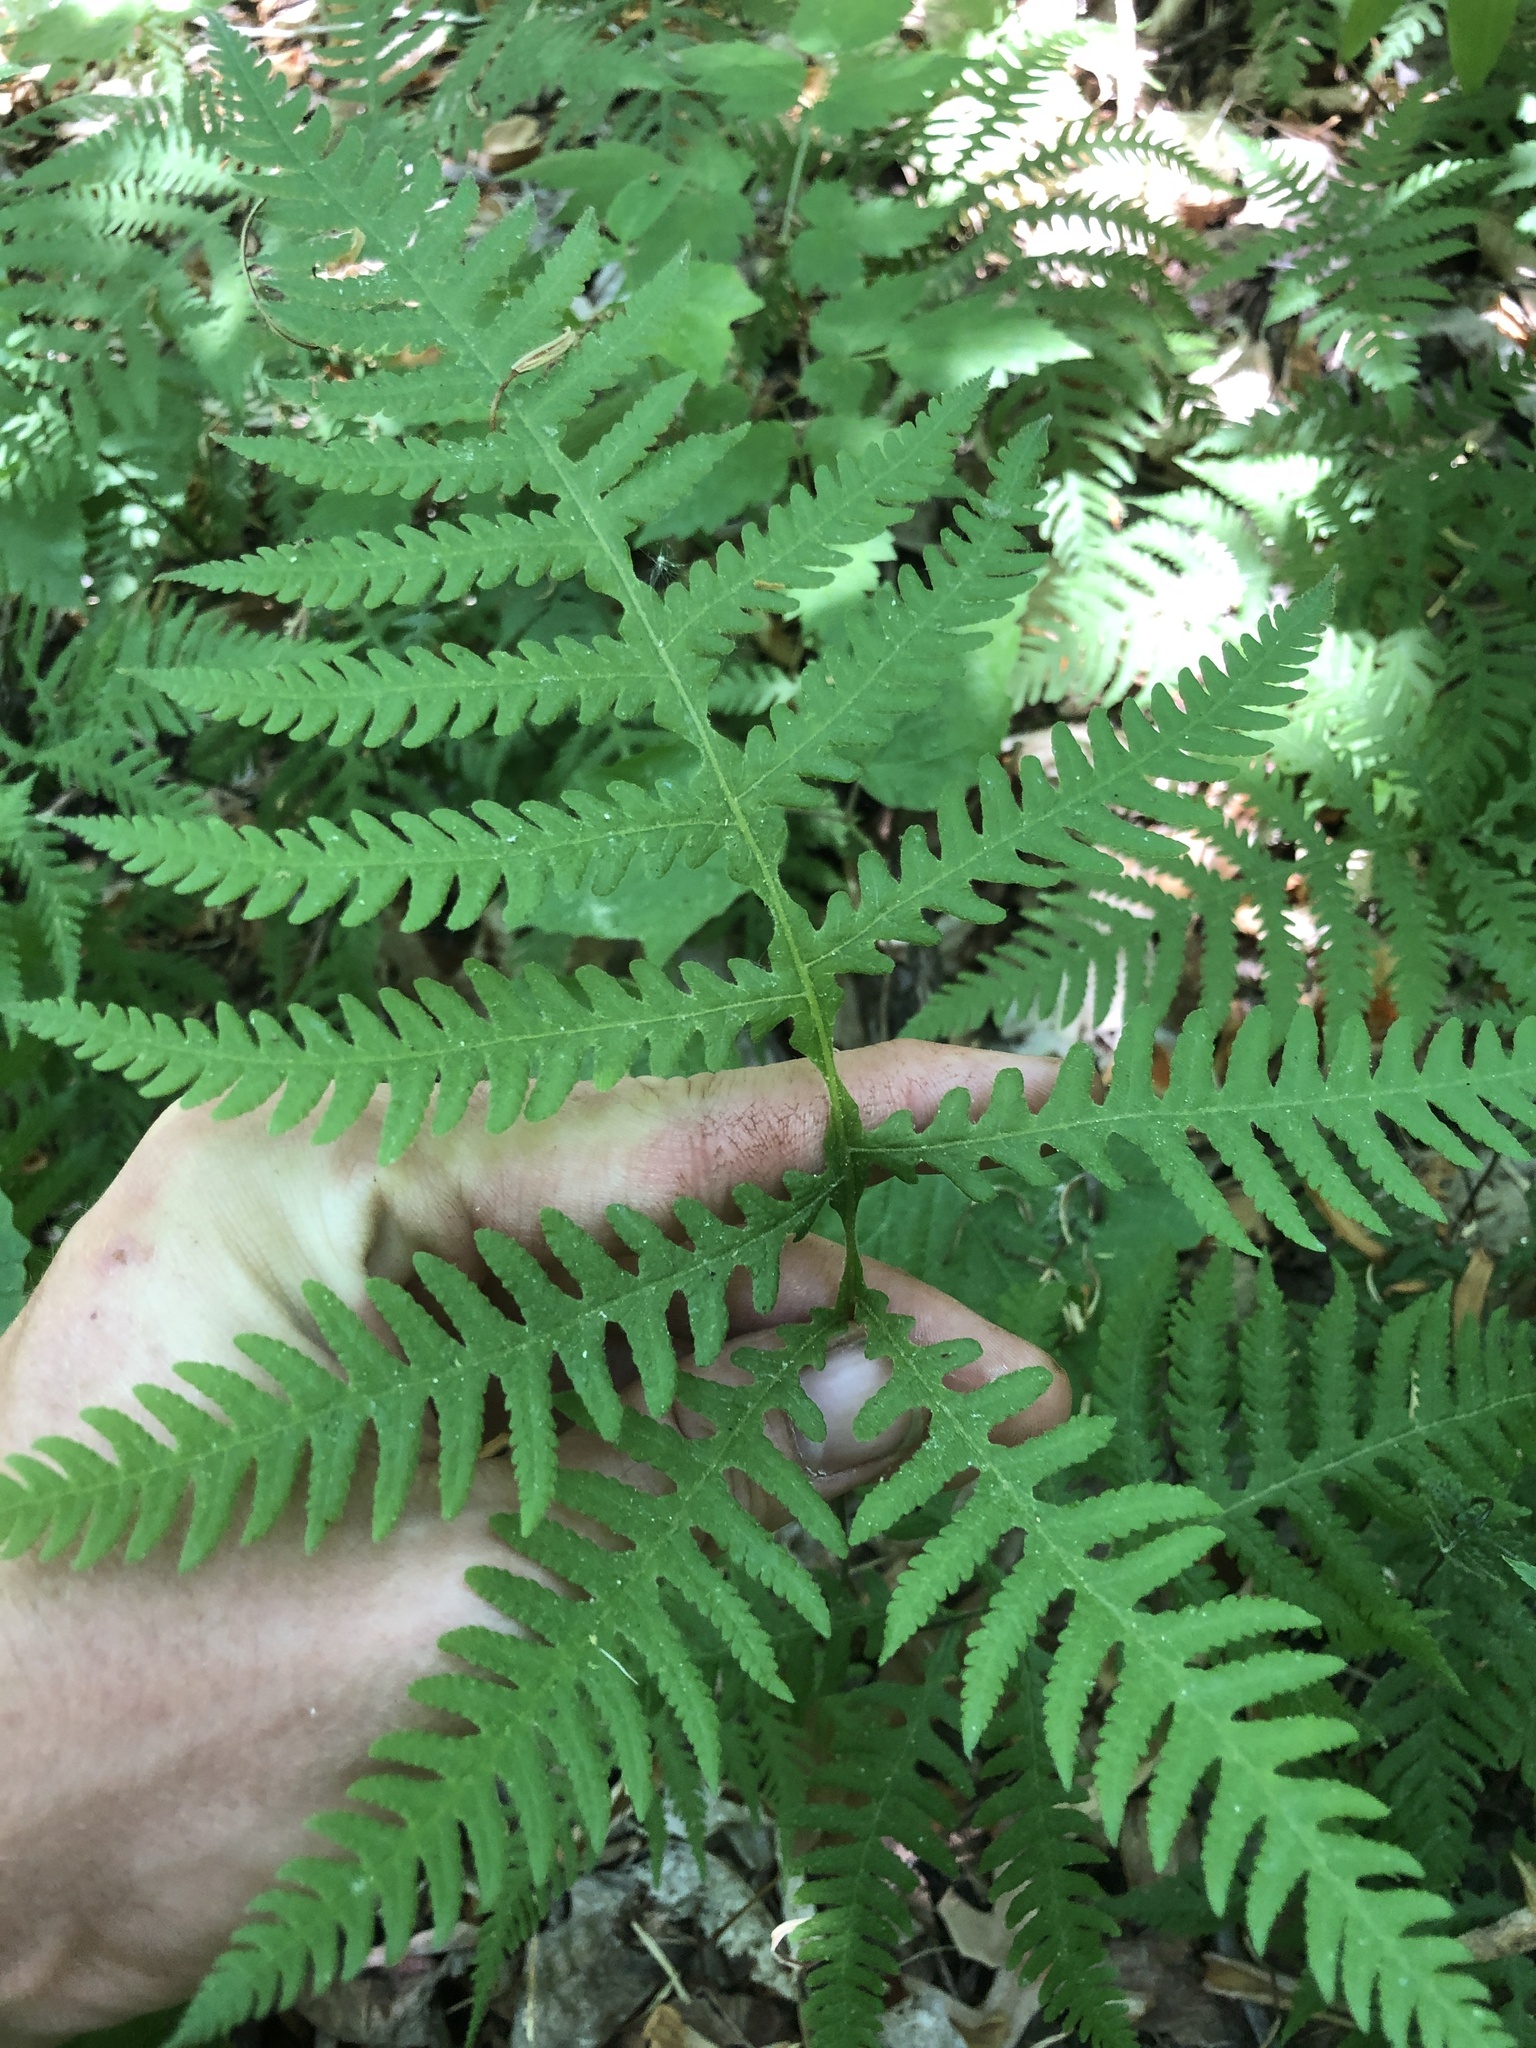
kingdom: Plantae
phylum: Tracheophyta
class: Polypodiopsida
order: Polypodiales
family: Thelypteridaceae
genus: Phegopteris
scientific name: Phegopteris hexagonoptera
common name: Broad beech fern
